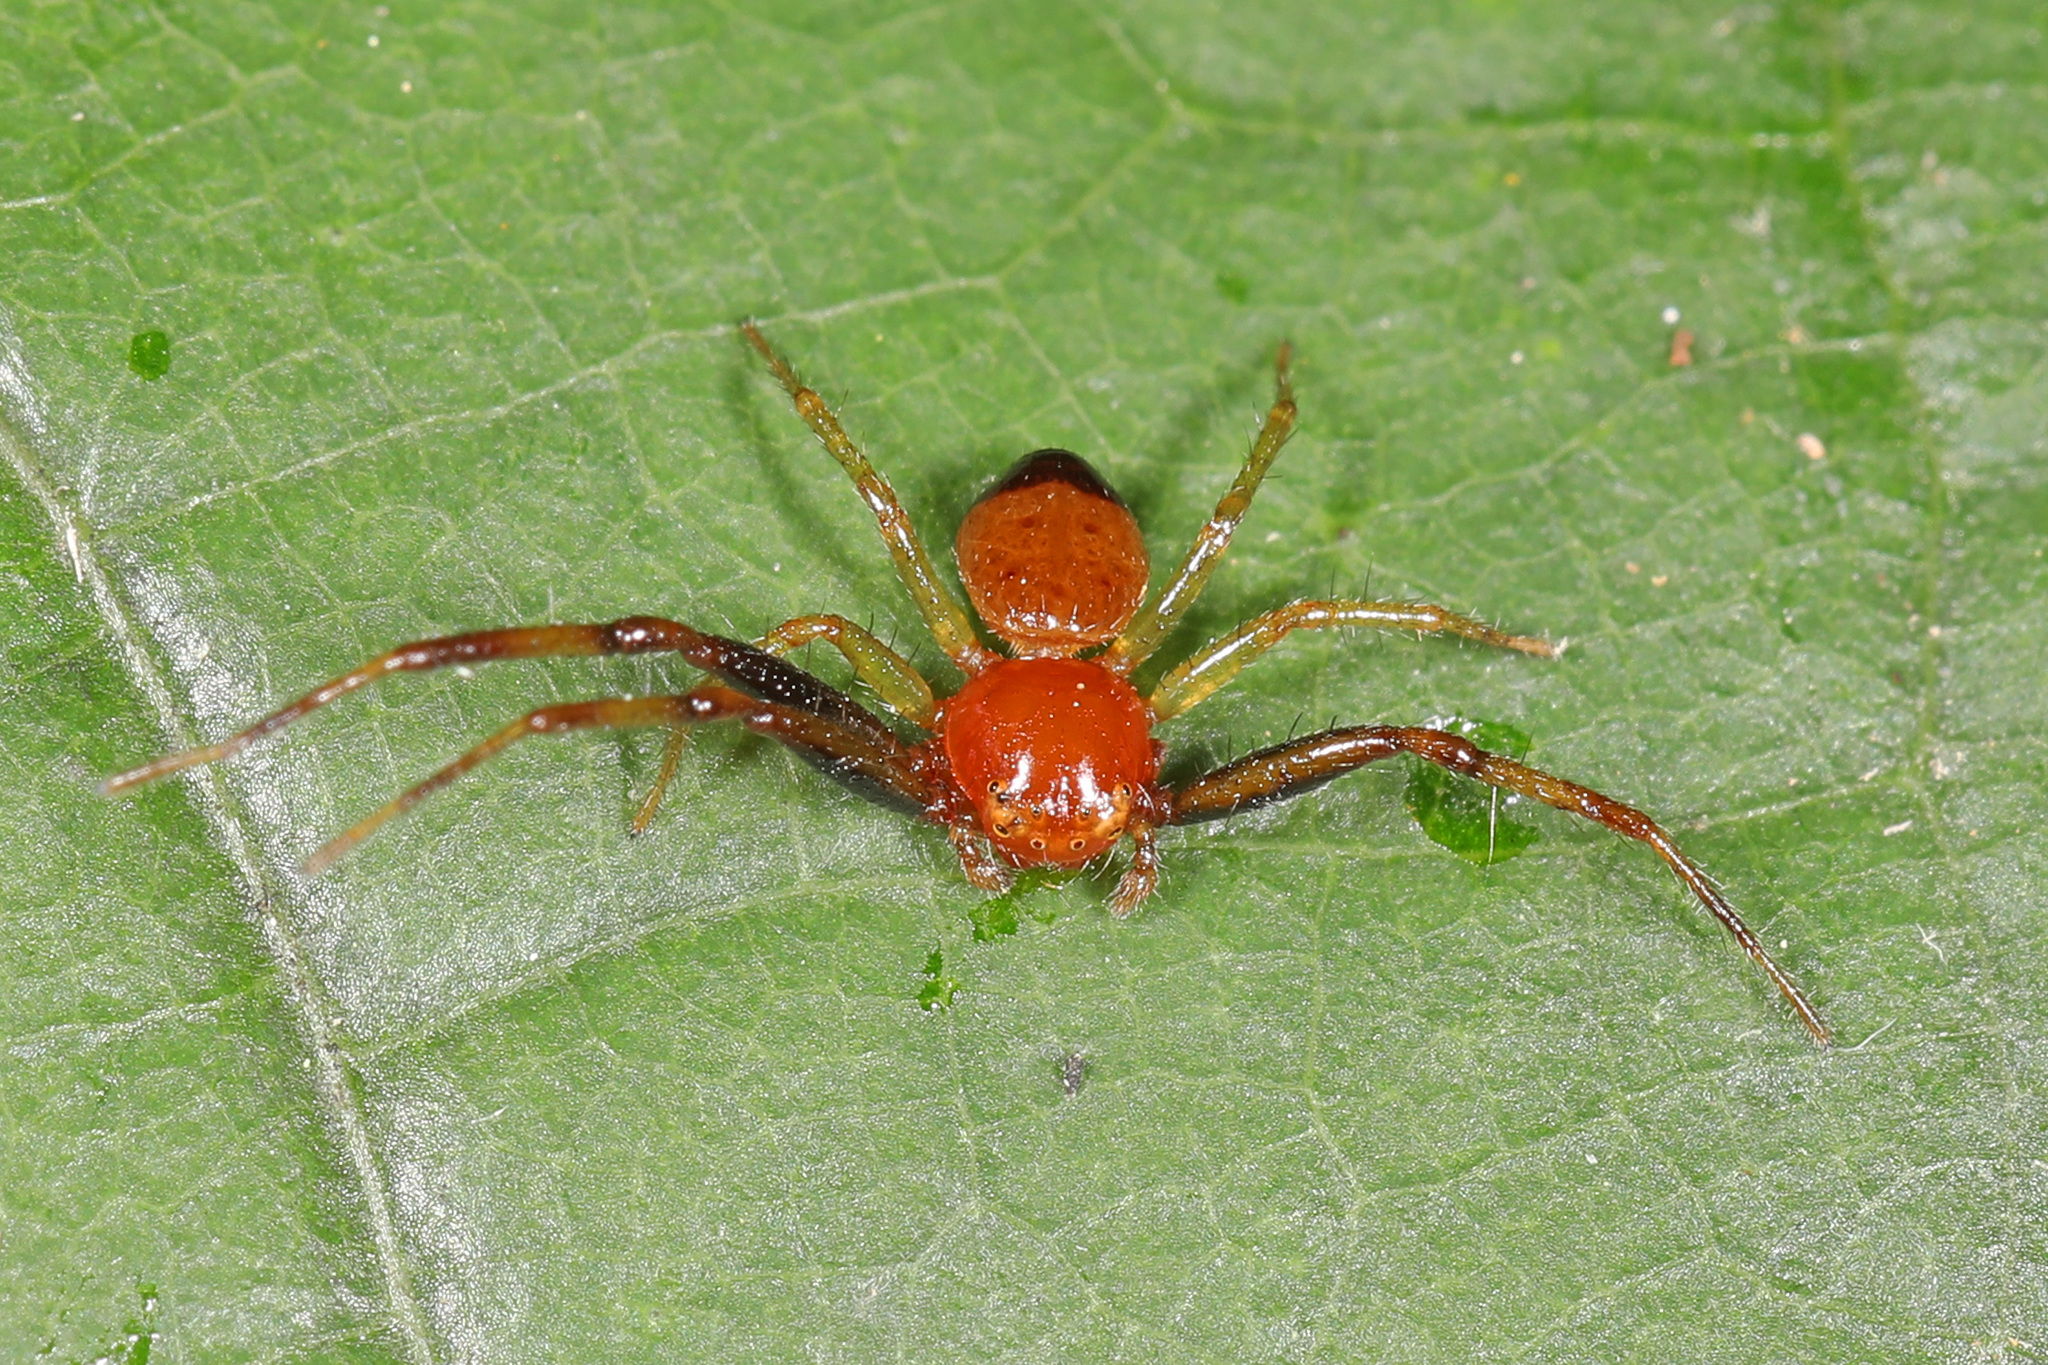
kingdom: Animalia
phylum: Arthropoda
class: Arachnida
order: Araneae
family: Thomisidae
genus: Synema
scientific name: Synema parvulum
